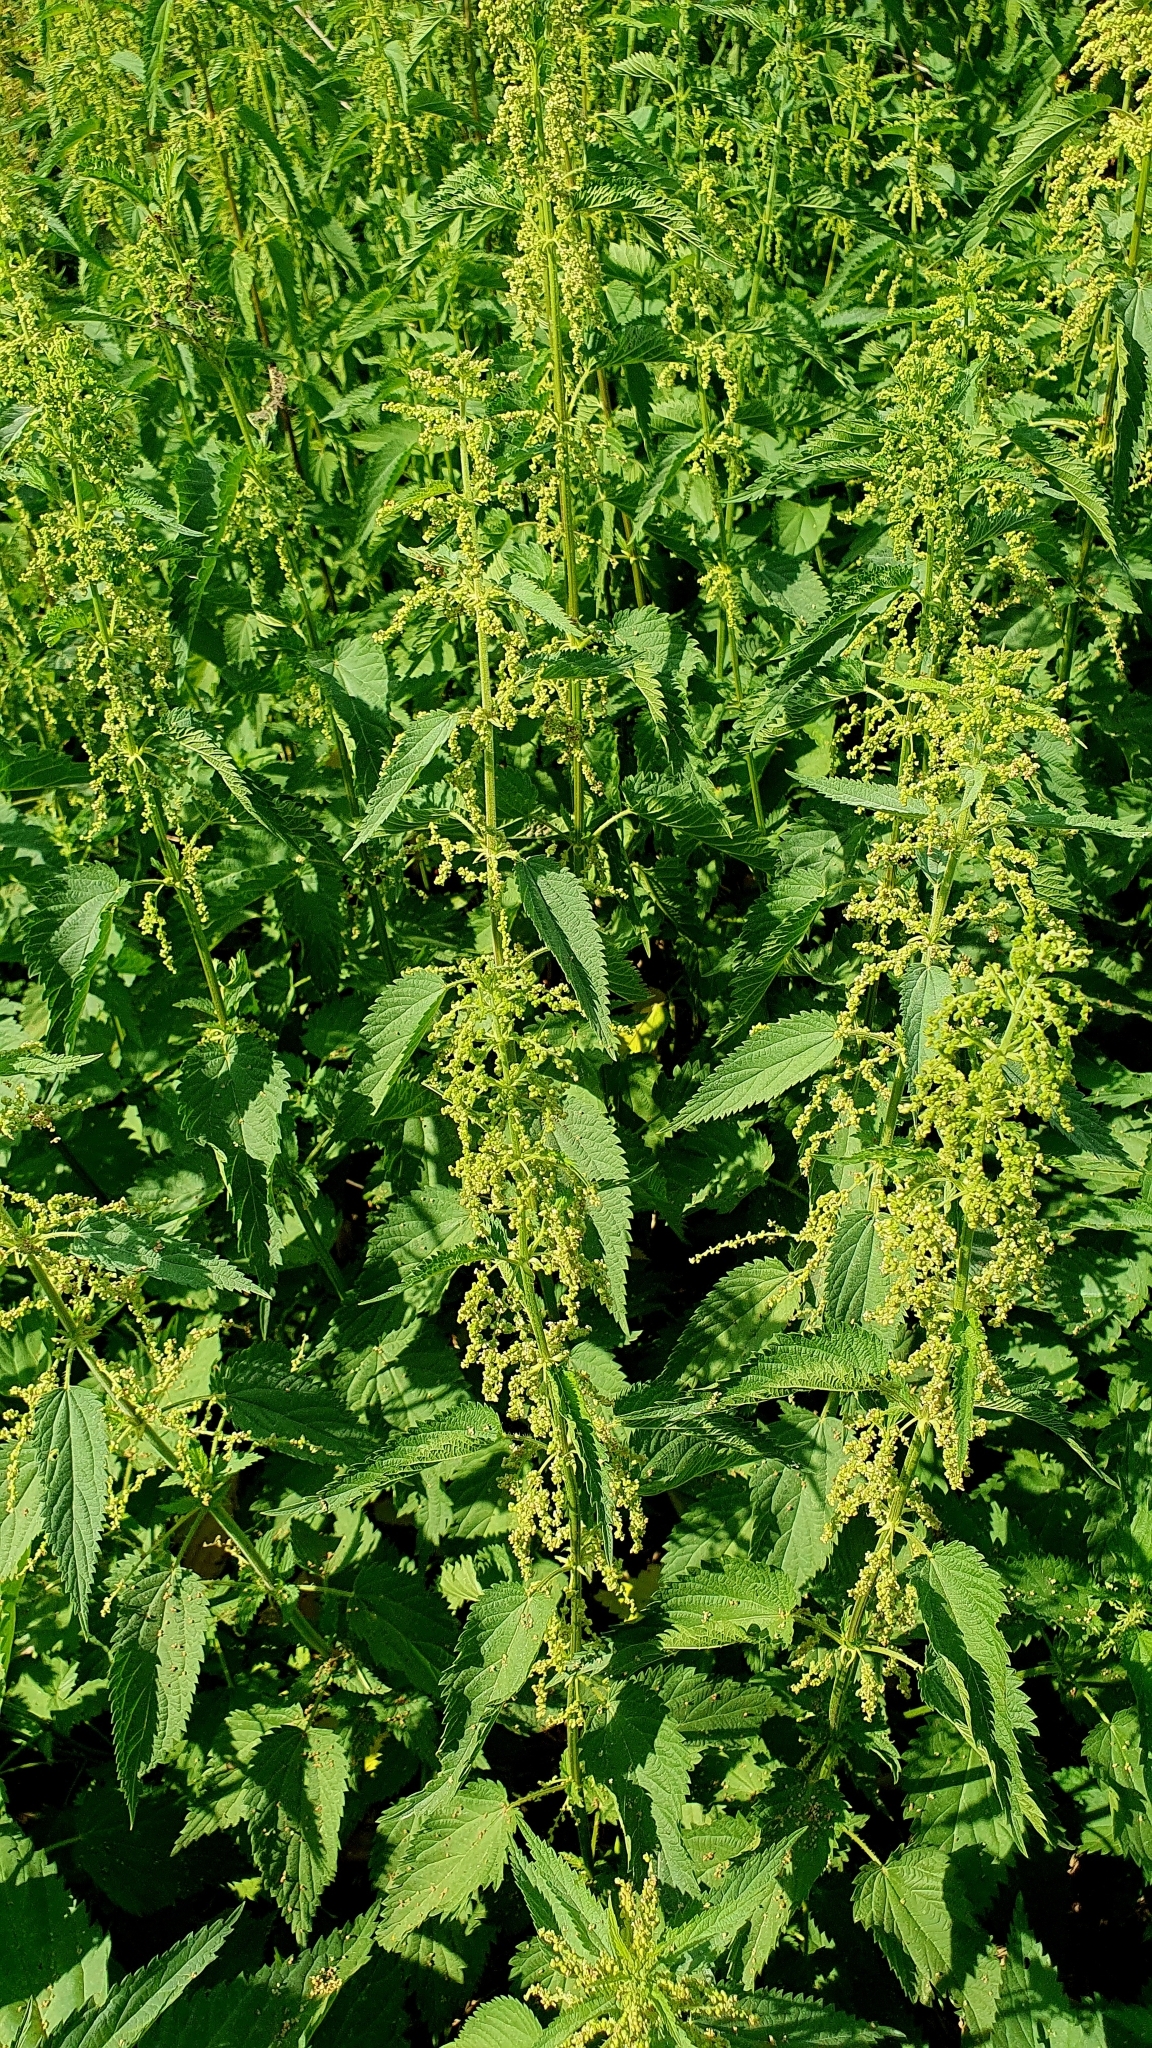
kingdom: Plantae
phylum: Tracheophyta
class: Magnoliopsida
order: Rosales
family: Urticaceae
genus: Urtica
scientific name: Urtica dioica
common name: Common nettle
